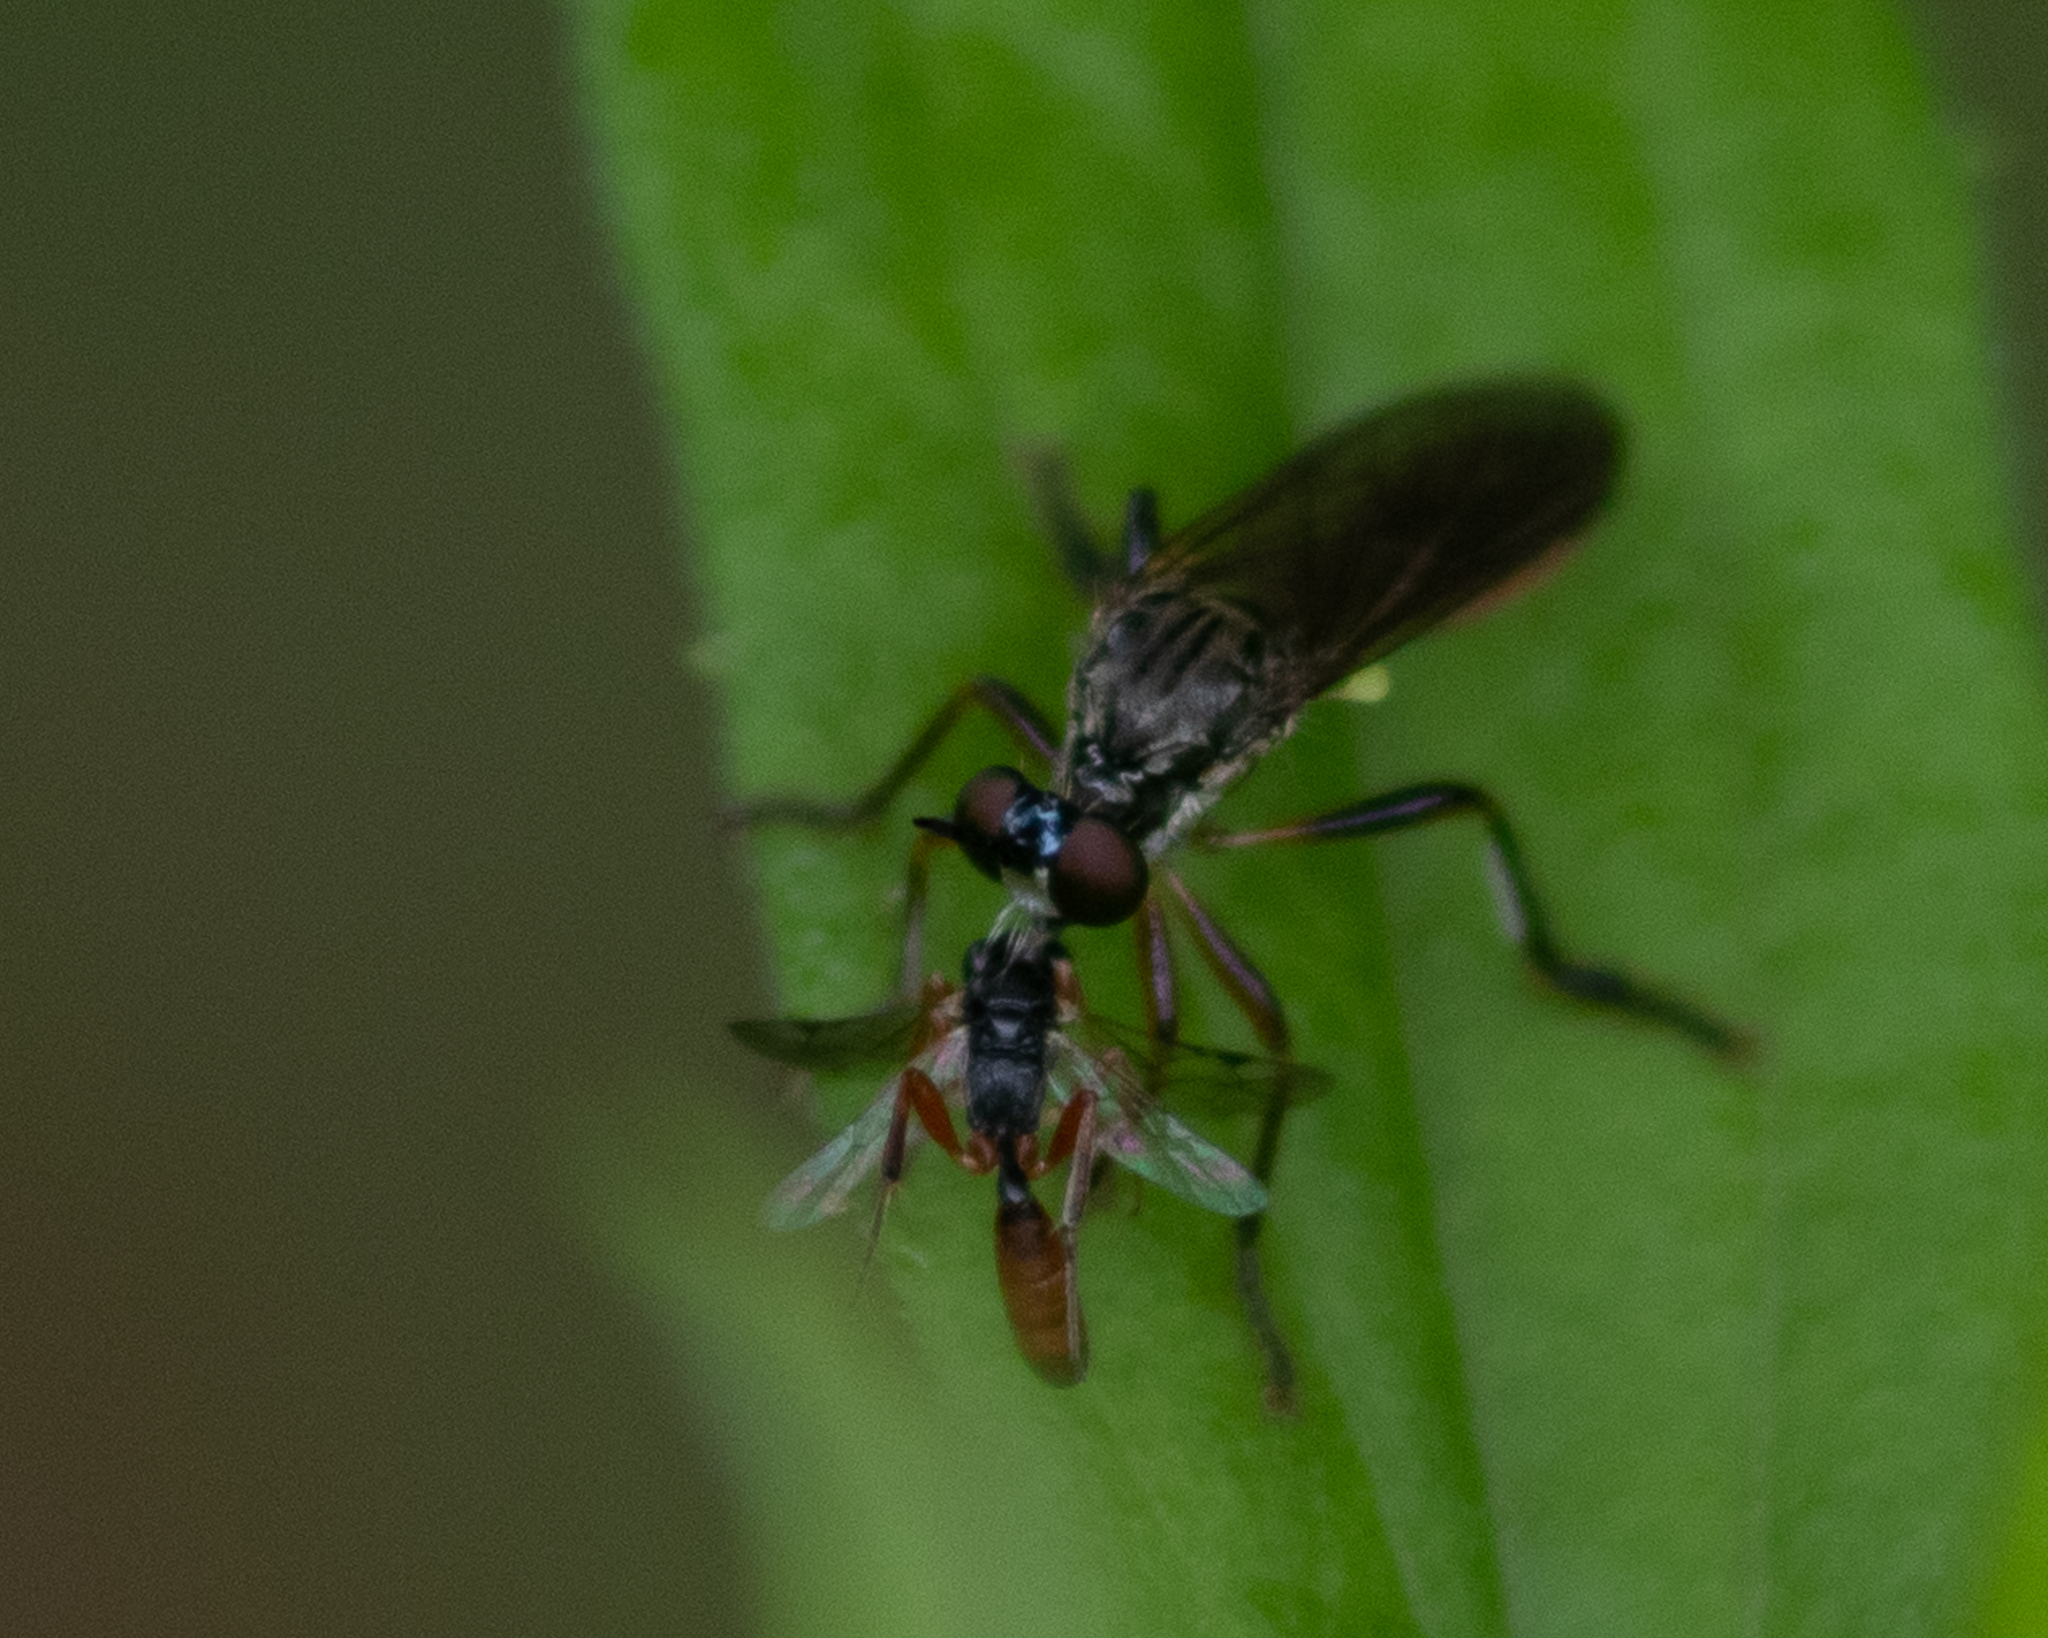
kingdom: Animalia
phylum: Arthropoda
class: Insecta
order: Diptera
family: Asilidae
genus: Dioctria
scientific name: Dioctria hyalipennis
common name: Stripe-legged robberfly
